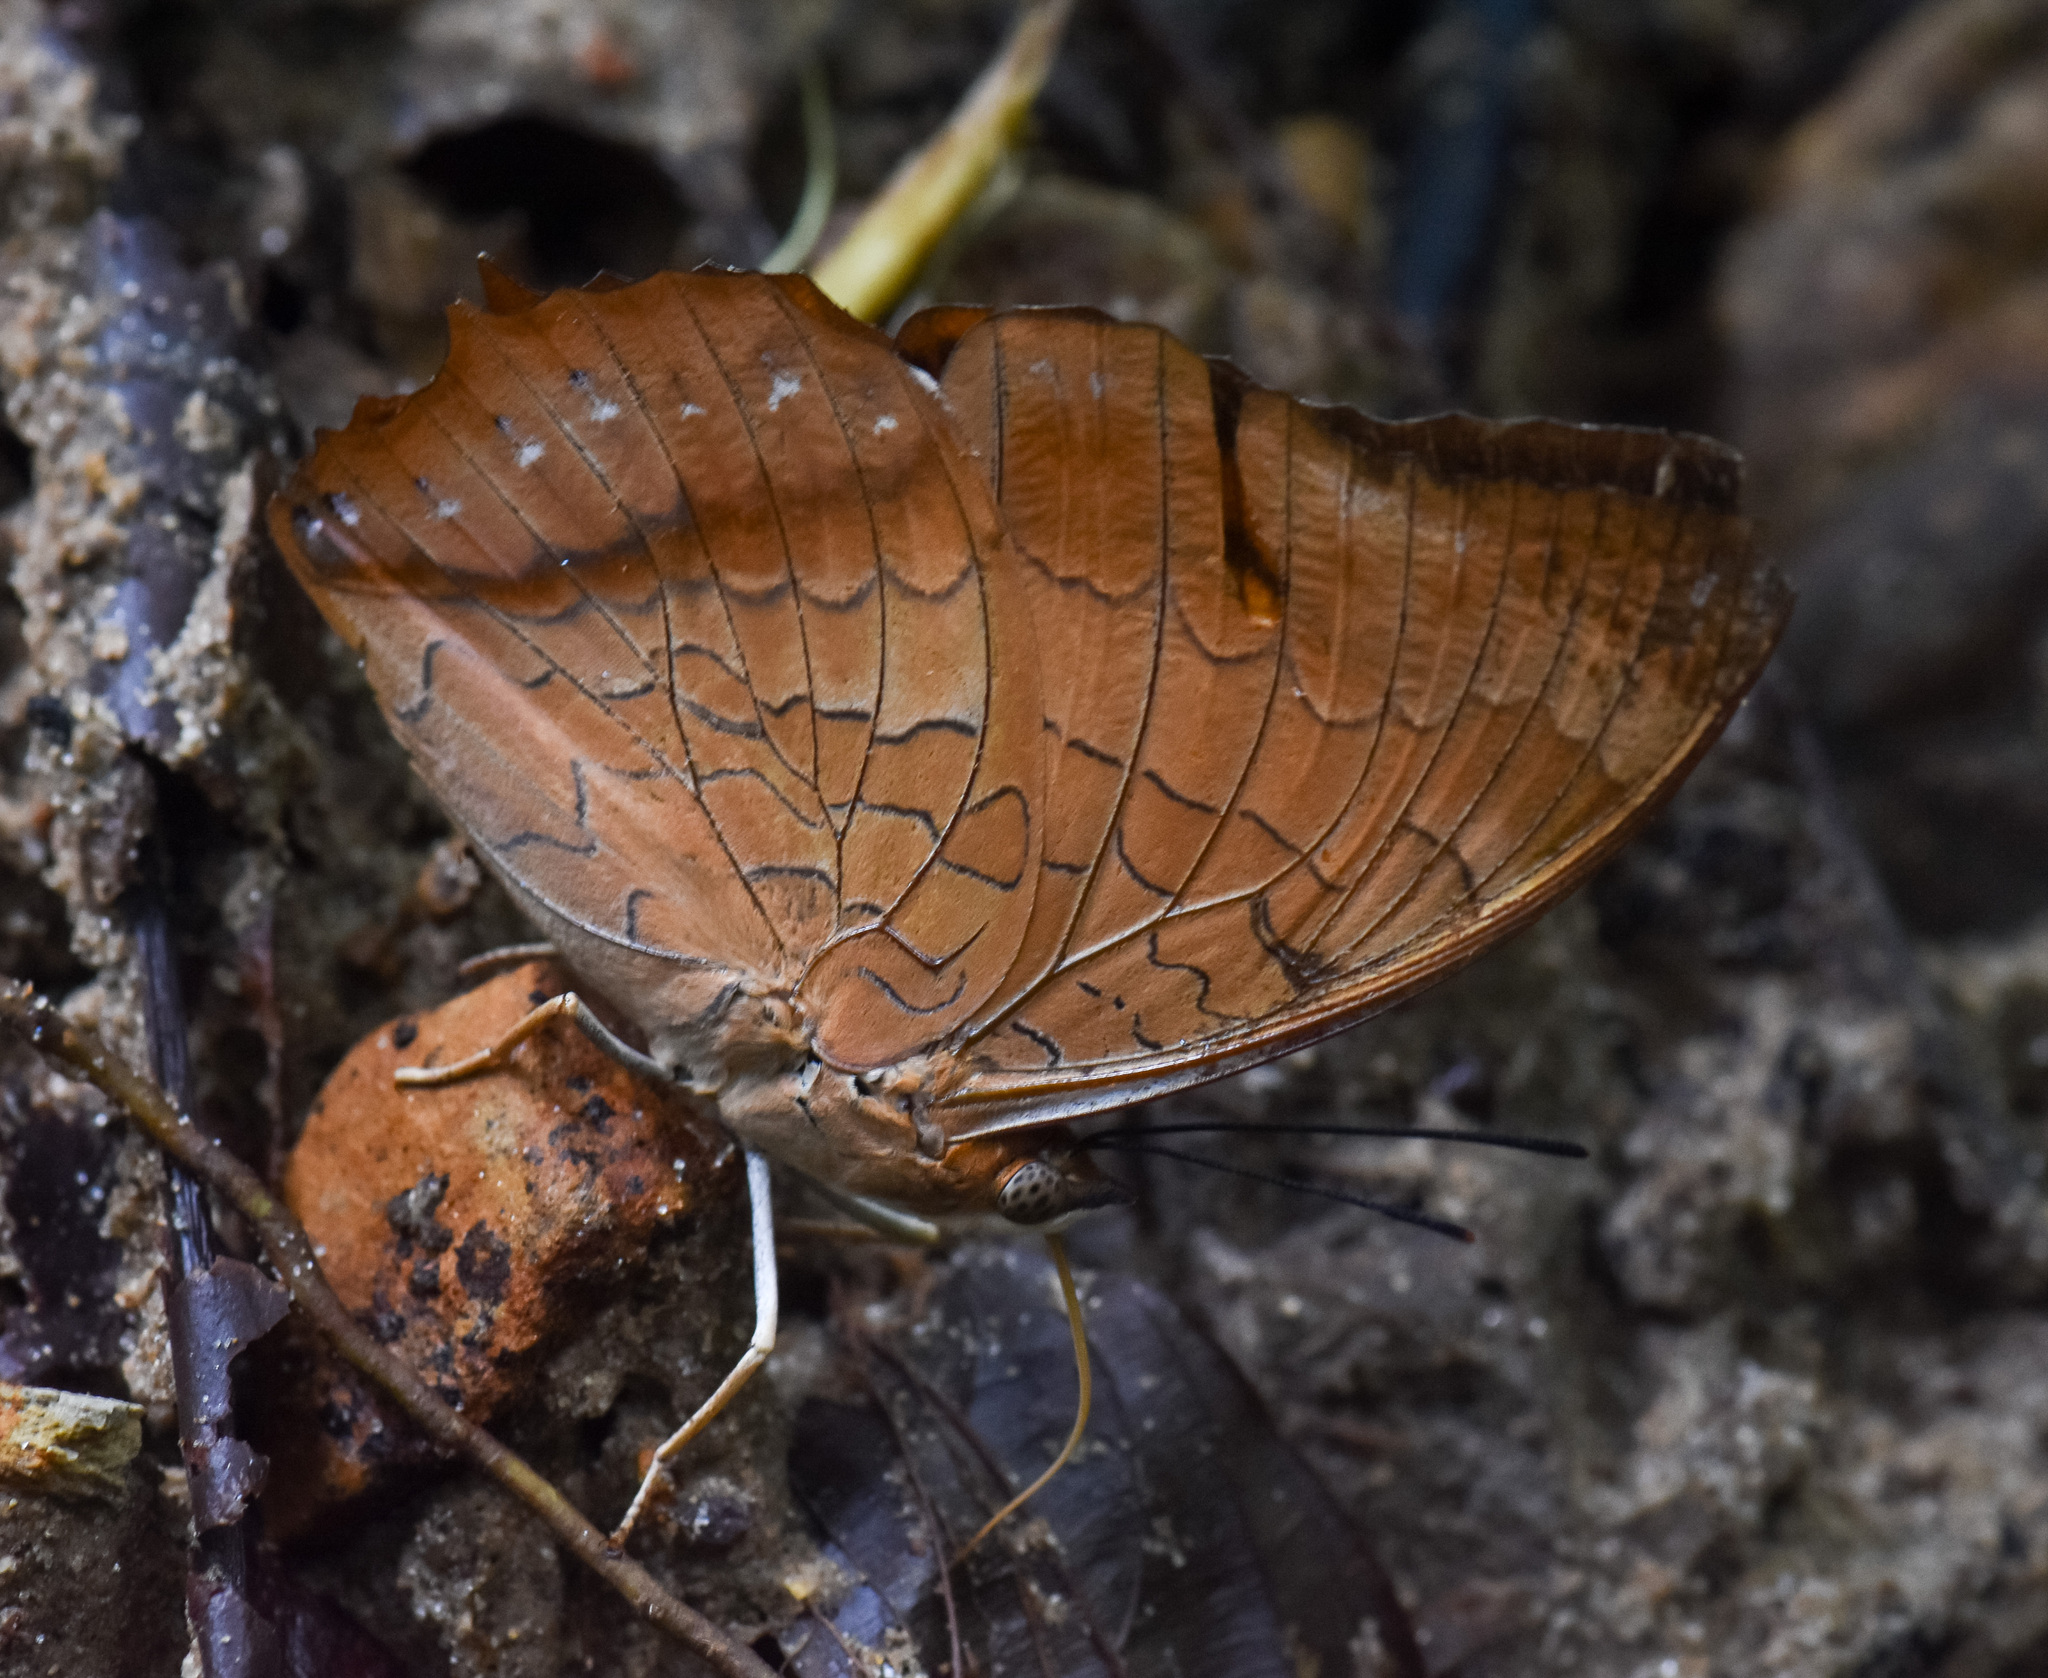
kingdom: Animalia
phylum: Arthropoda
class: Insecta
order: Lepidoptera
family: Nymphalidae
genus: Charaxes
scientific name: Charaxes bernardus
